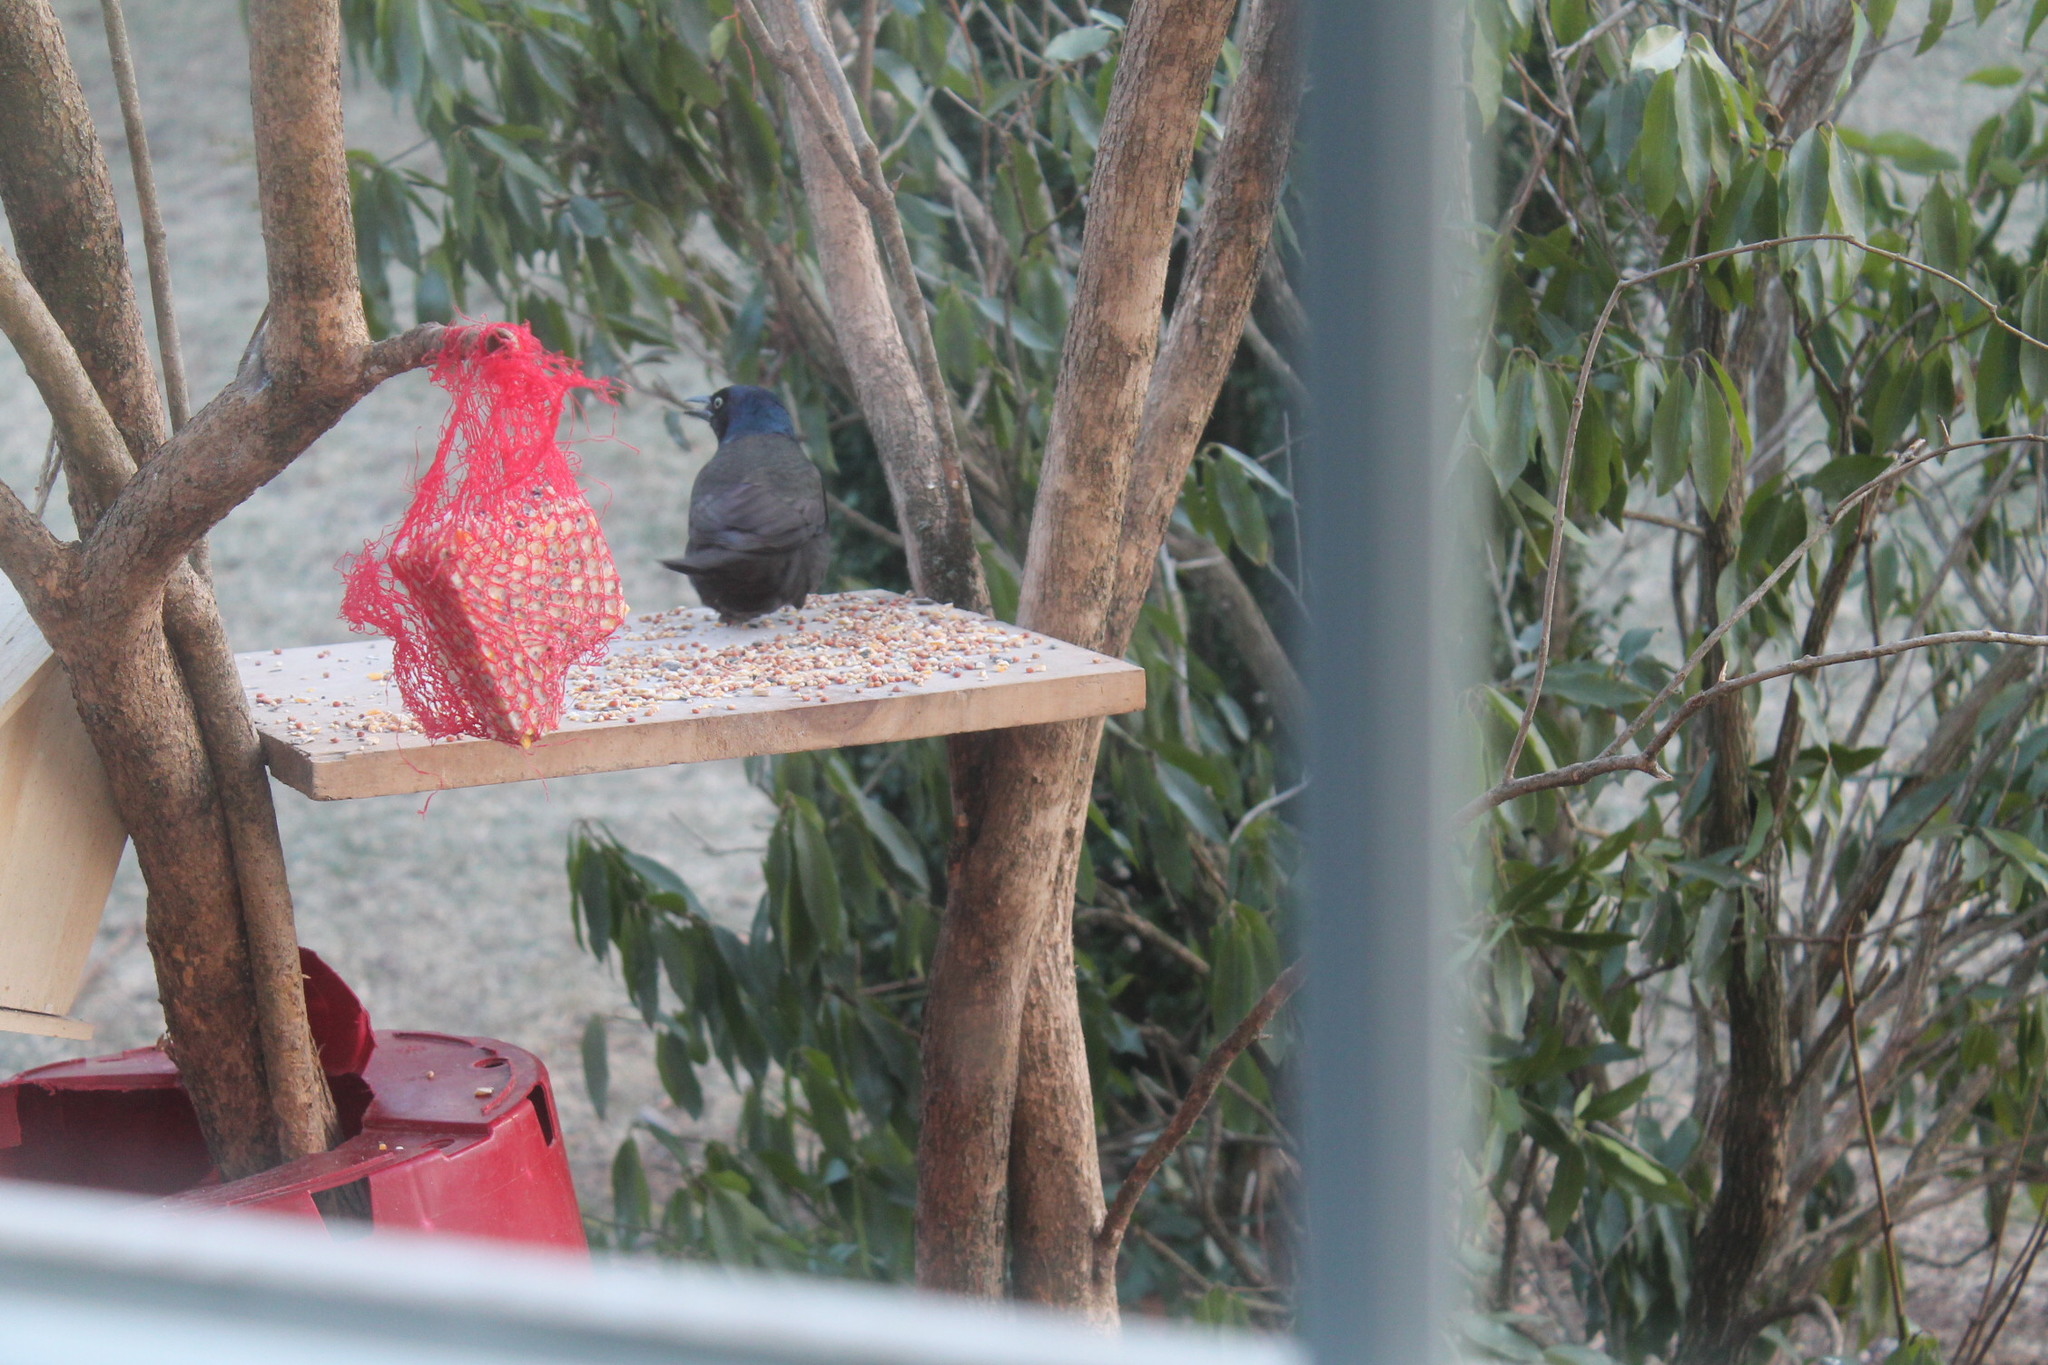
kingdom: Animalia
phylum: Chordata
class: Aves
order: Passeriformes
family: Icteridae
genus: Quiscalus
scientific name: Quiscalus quiscula
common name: Common grackle
